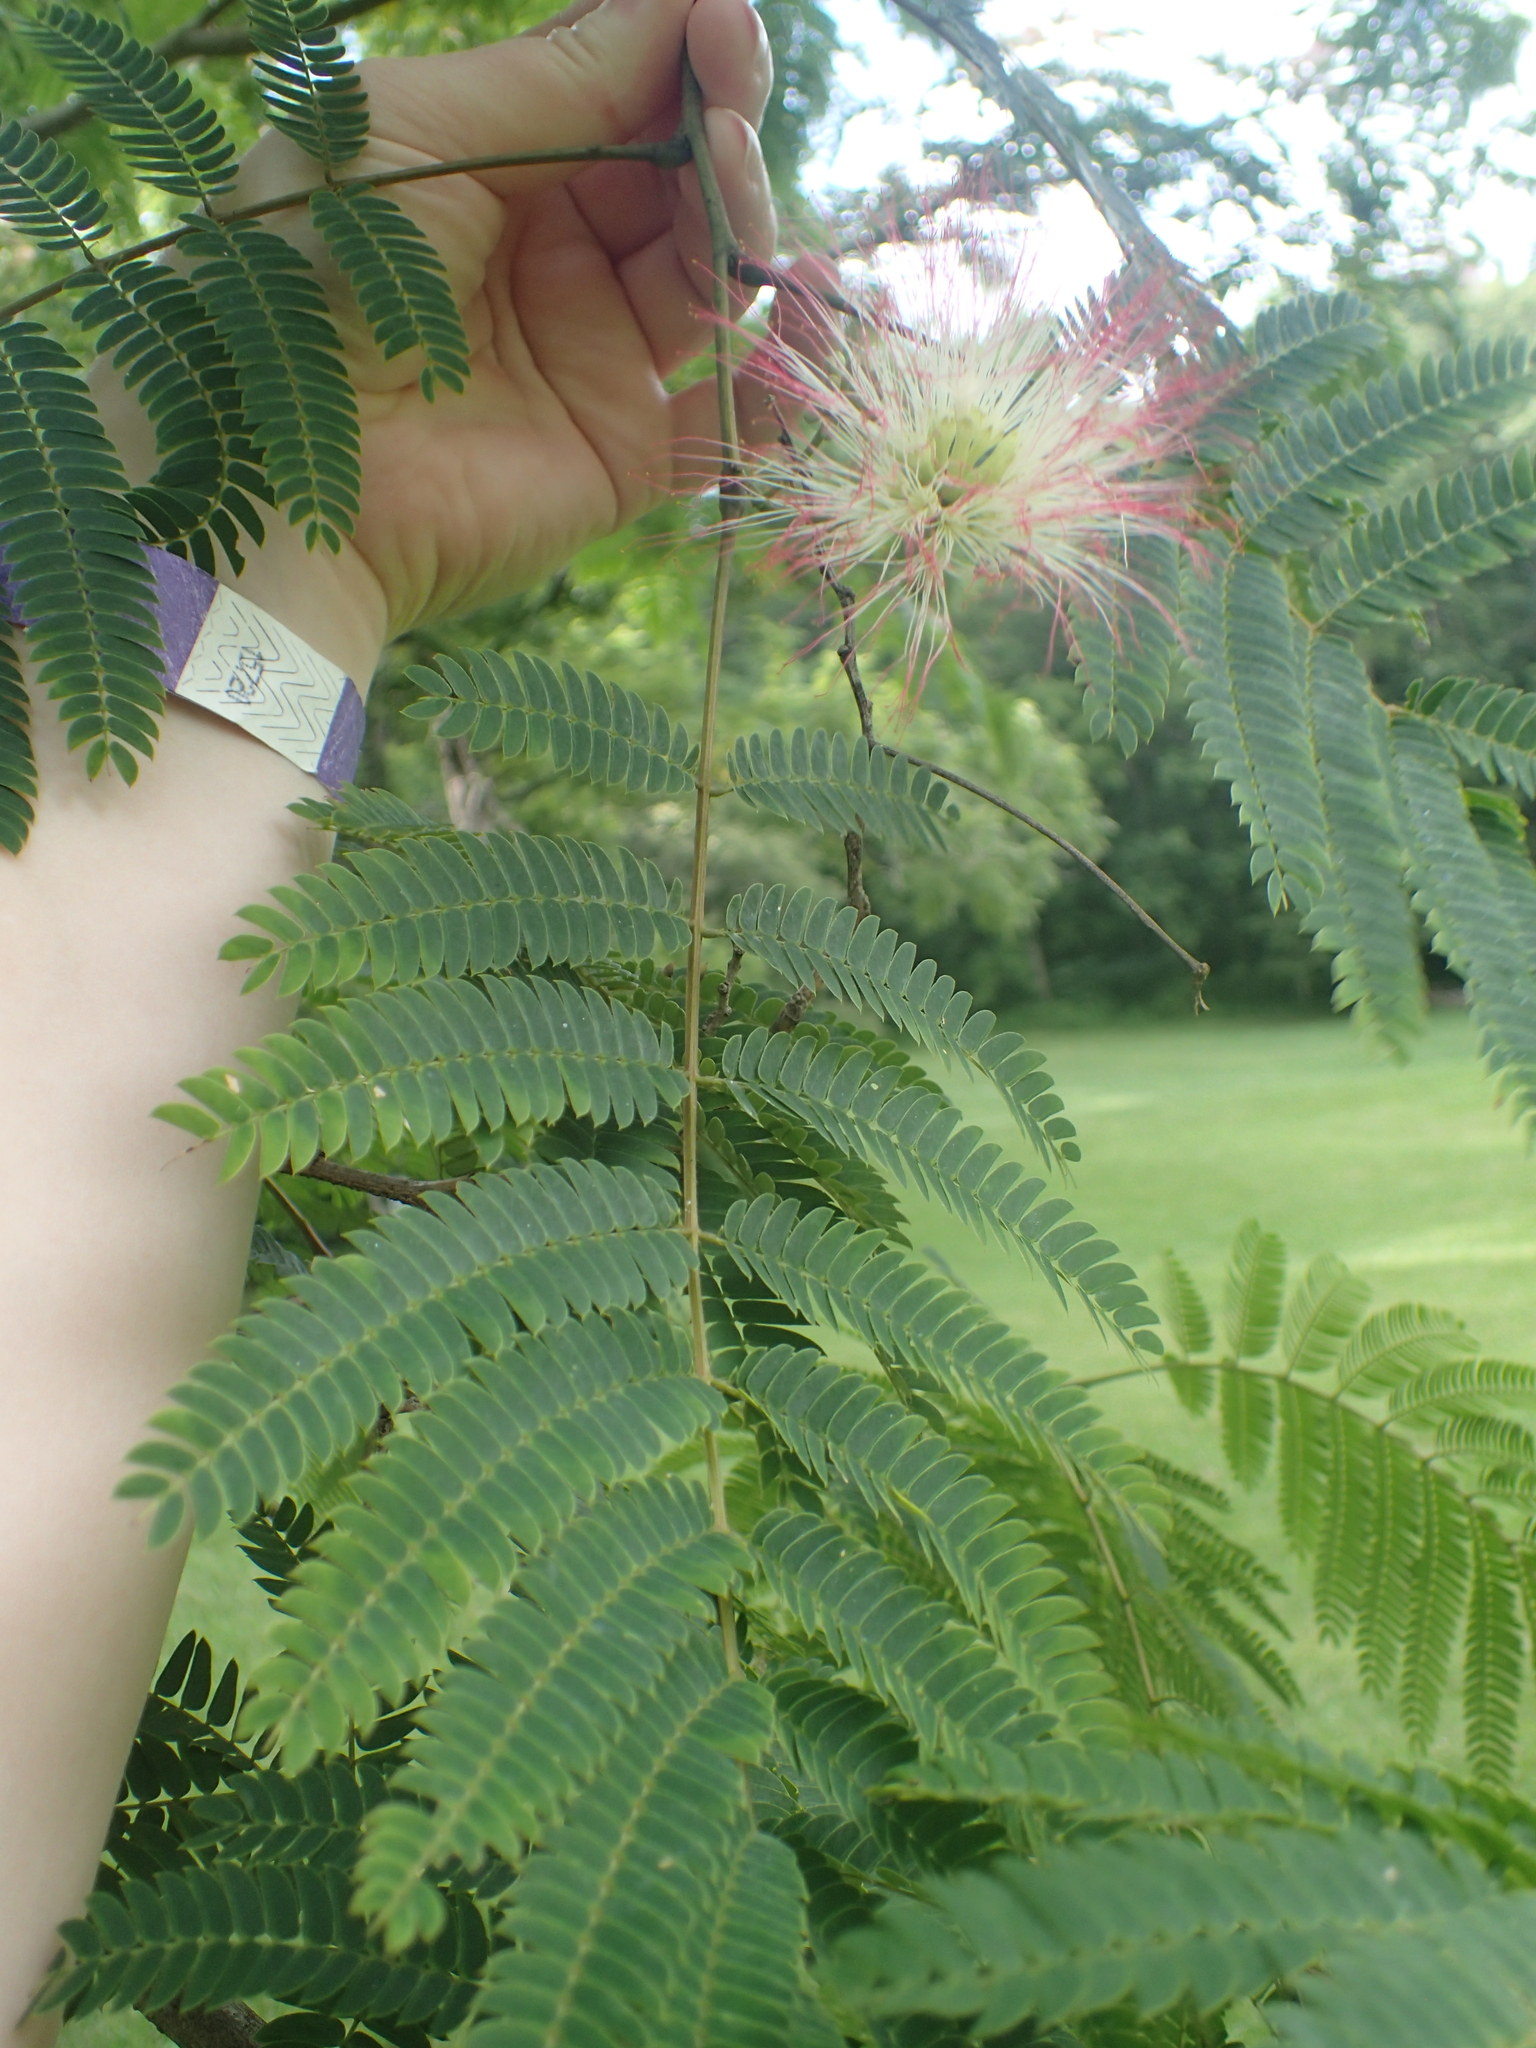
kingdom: Plantae
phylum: Tracheophyta
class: Magnoliopsida
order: Fabales
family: Fabaceae
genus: Albizia
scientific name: Albizia julibrissin
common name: Silktree
